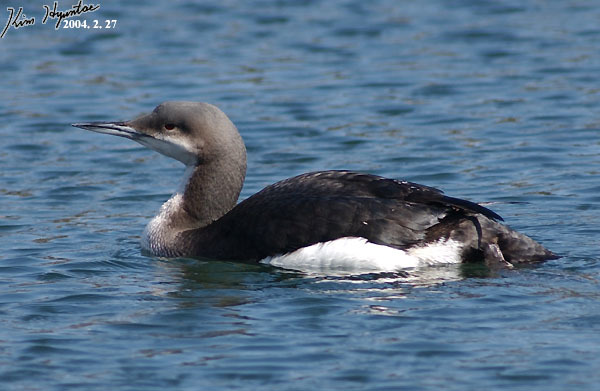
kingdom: Animalia
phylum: Chordata
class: Aves
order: Gaviiformes
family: Gaviidae
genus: Gavia
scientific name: Gavia arctica
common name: Black-throated loon
